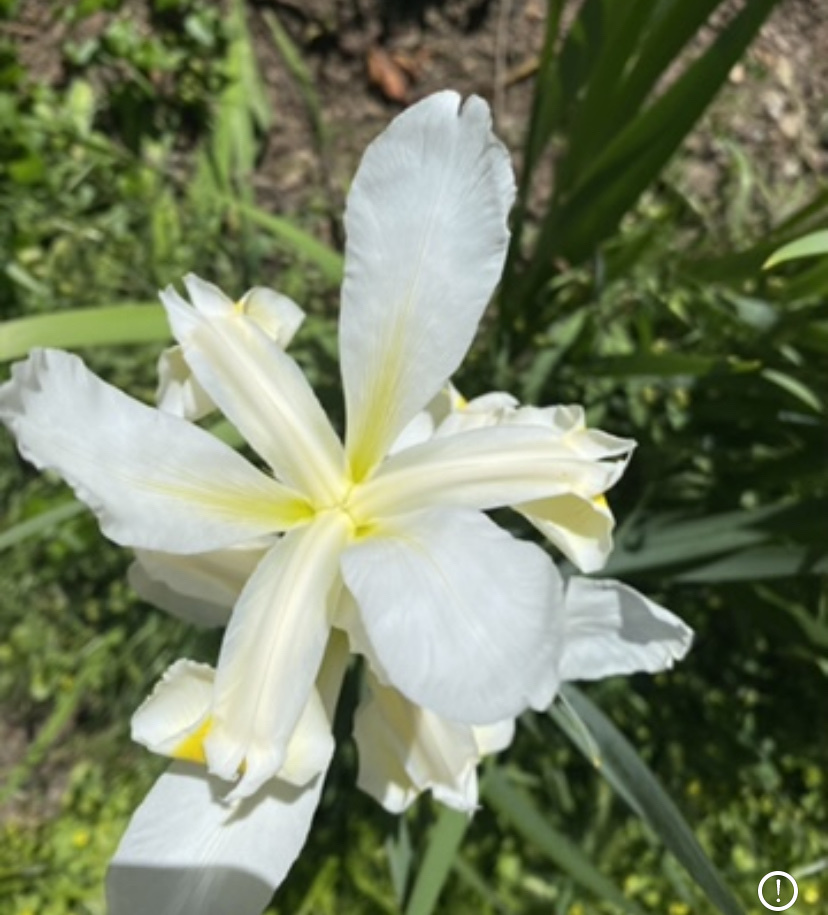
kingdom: Plantae
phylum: Tracheophyta
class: Liliopsida
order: Asparagales
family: Iridaceae
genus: Iris
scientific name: Iris orientalis
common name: Turkish iris
